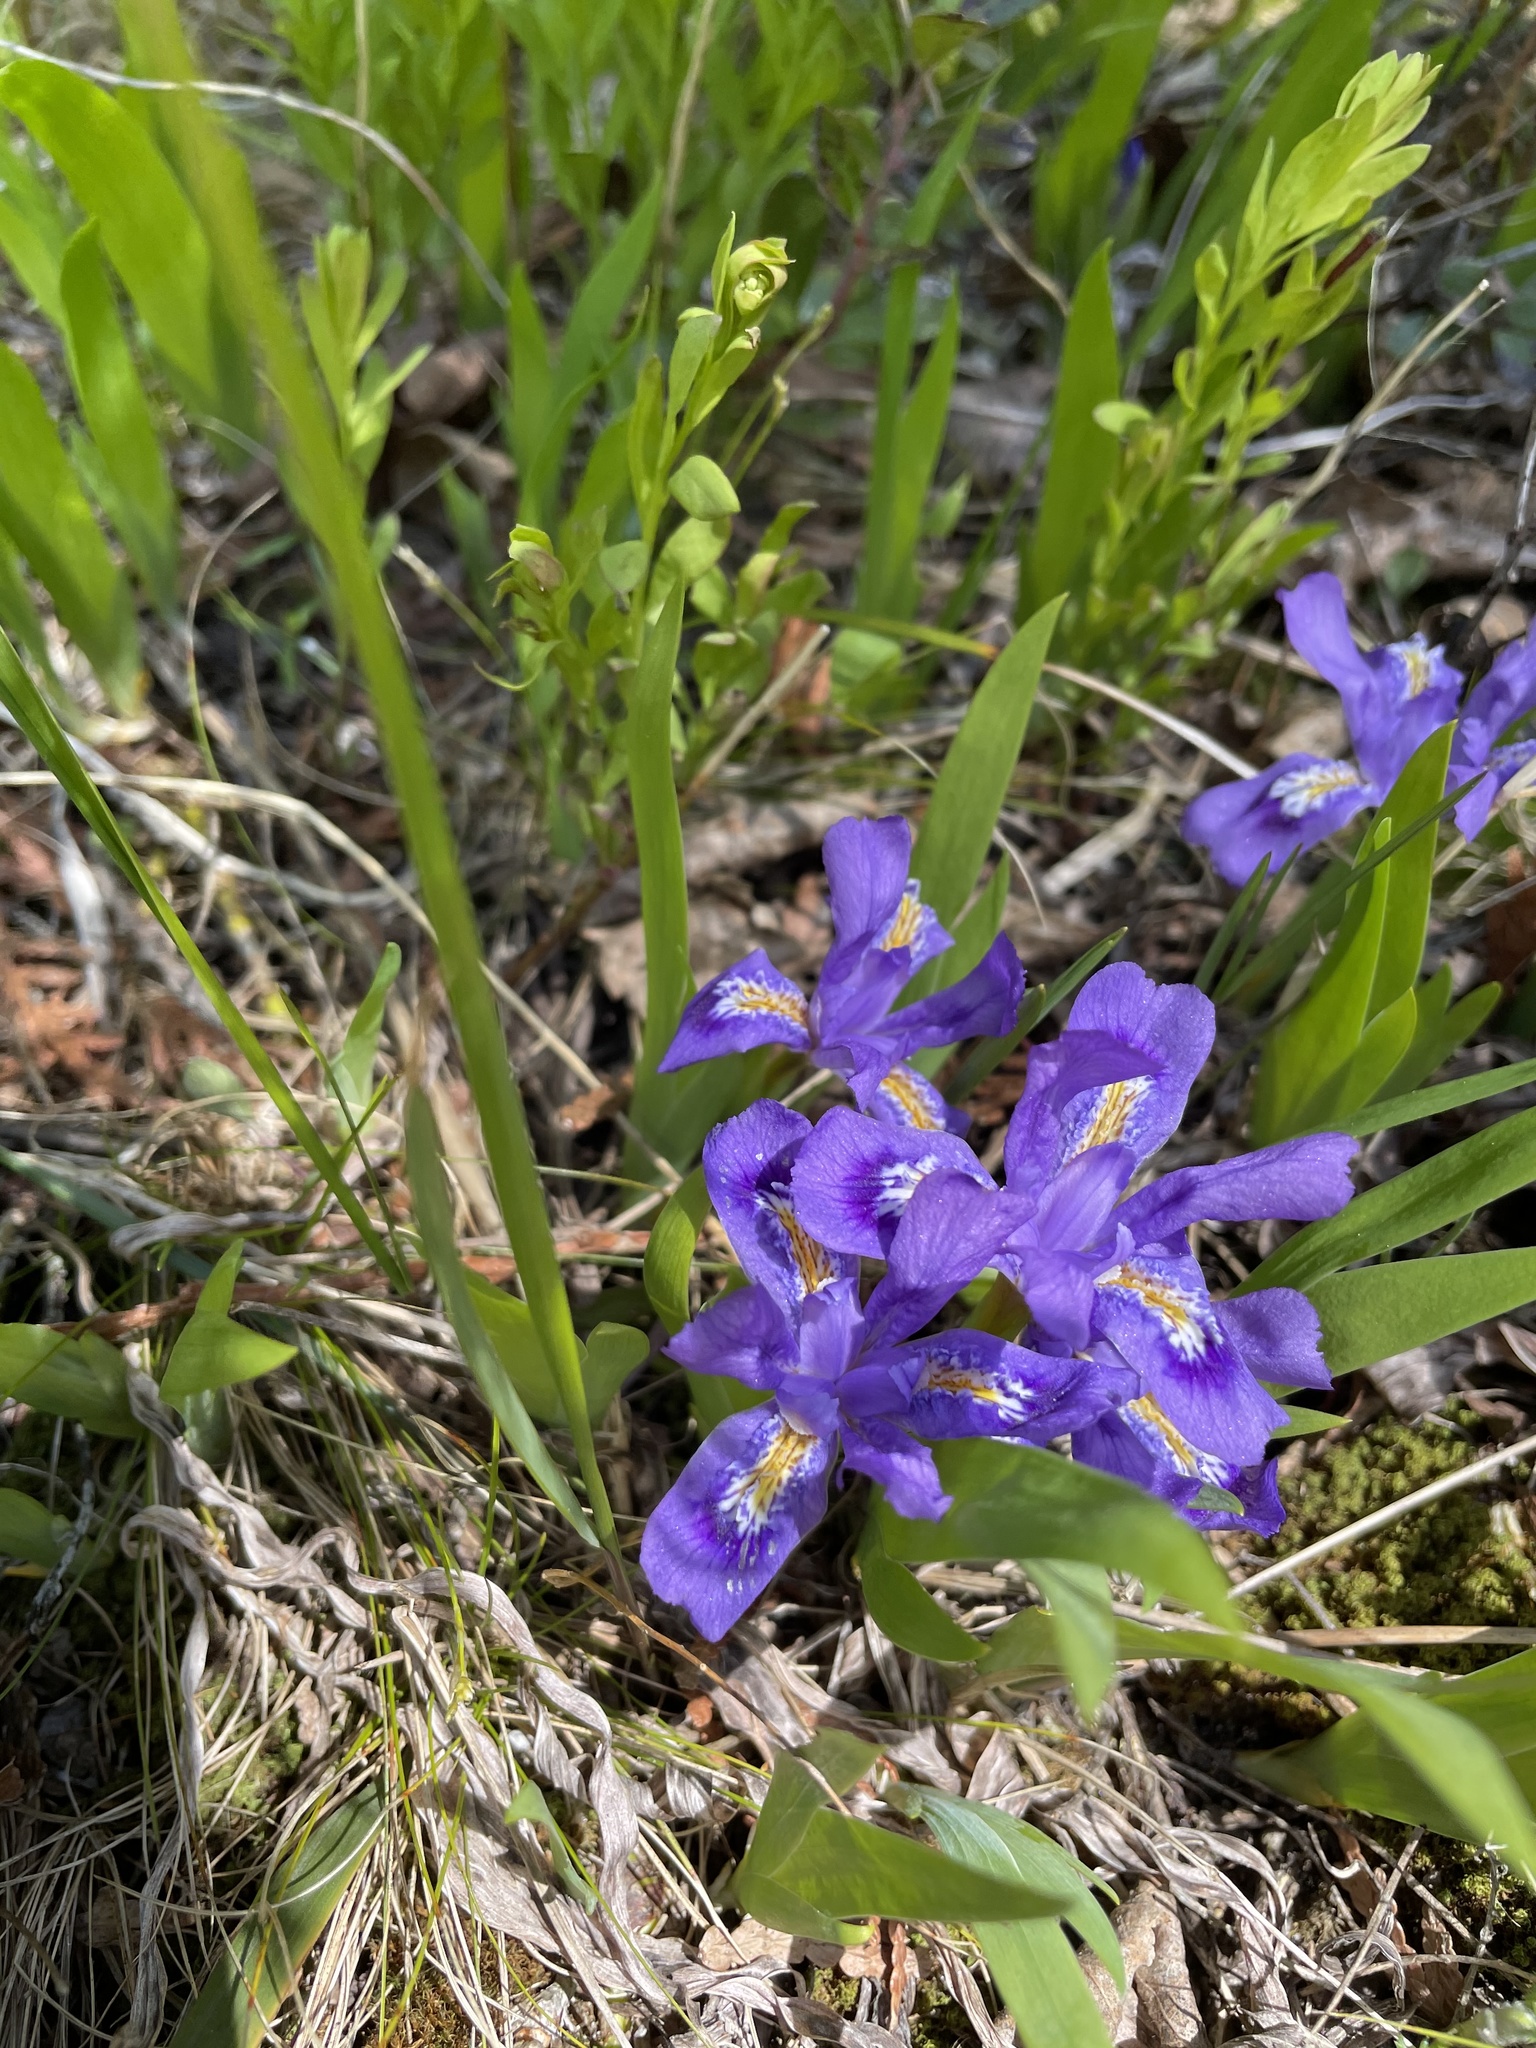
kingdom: Plantae
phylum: Tracheophyta
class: Liliopsida
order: Asparagales
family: Iridaceae
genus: Iris
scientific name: Iris lacustris
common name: Dwarf lake iris
